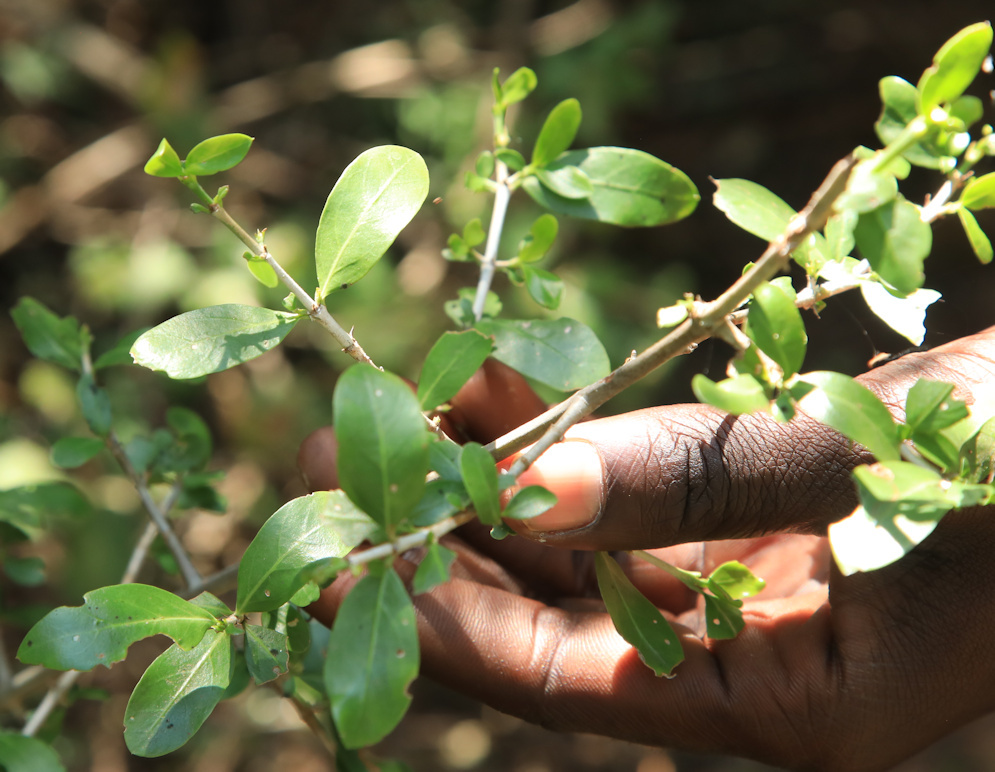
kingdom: Plantae
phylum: Tracheophyta
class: Magnoliopsida
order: Gentianales
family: Rubiaceae
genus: Pyrostria
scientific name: Pyrostria hystrix
